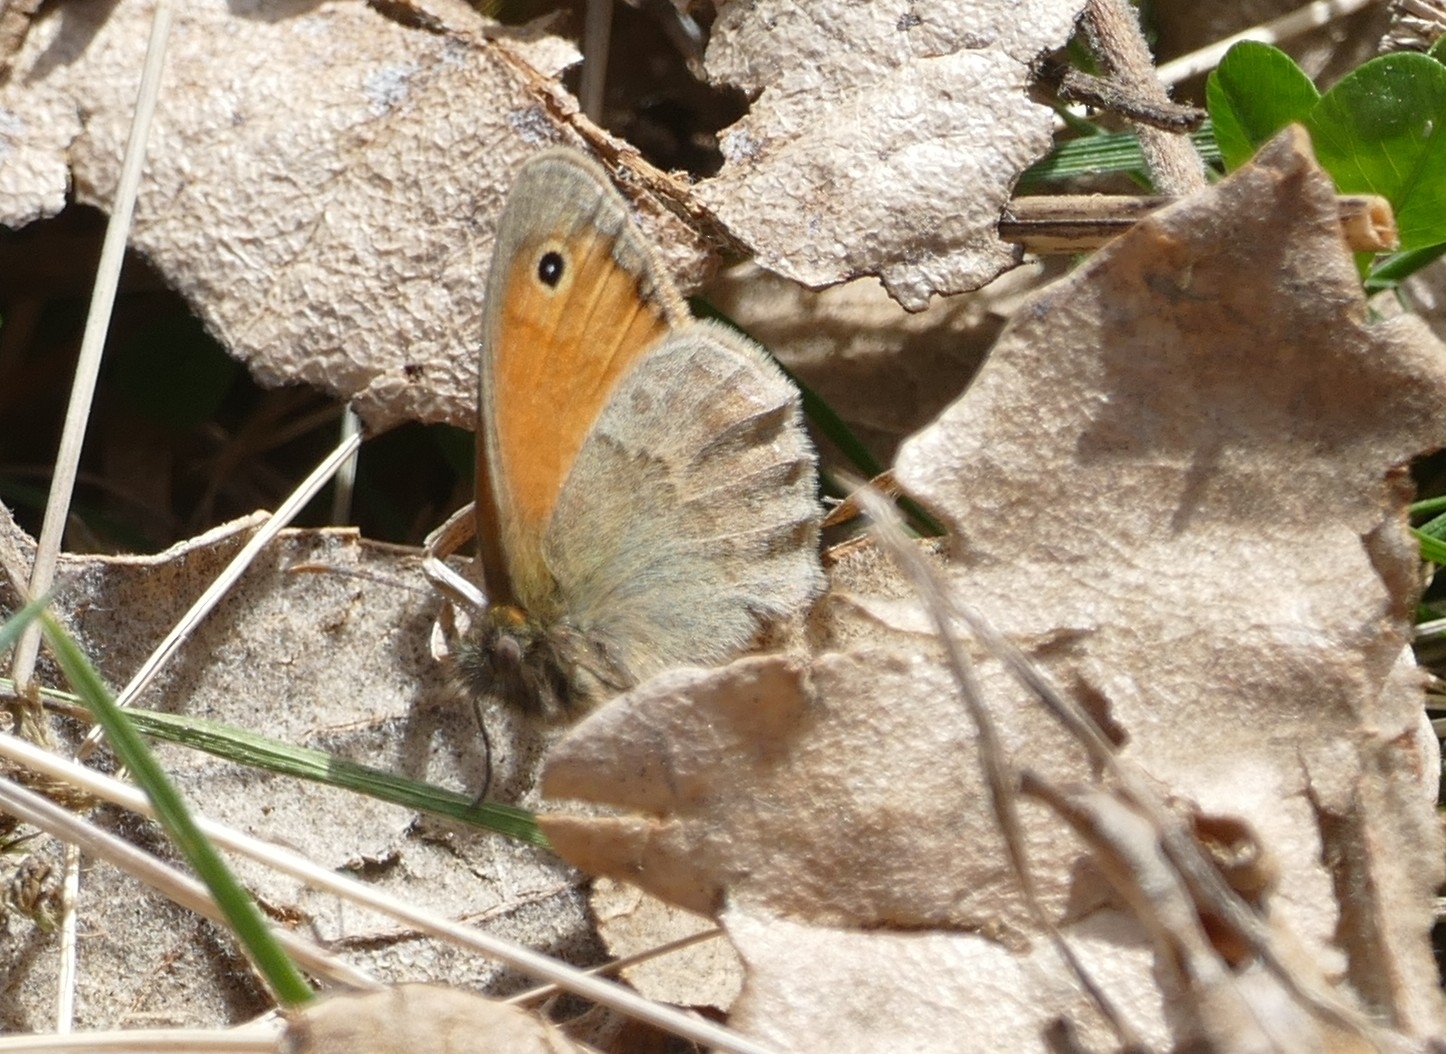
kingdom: Animalia
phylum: Arthropoda
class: Insecta
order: Lepidoptera
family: Nymphalidae
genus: Coenonympha
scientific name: Coenonympha pamphilus
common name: Small heath
